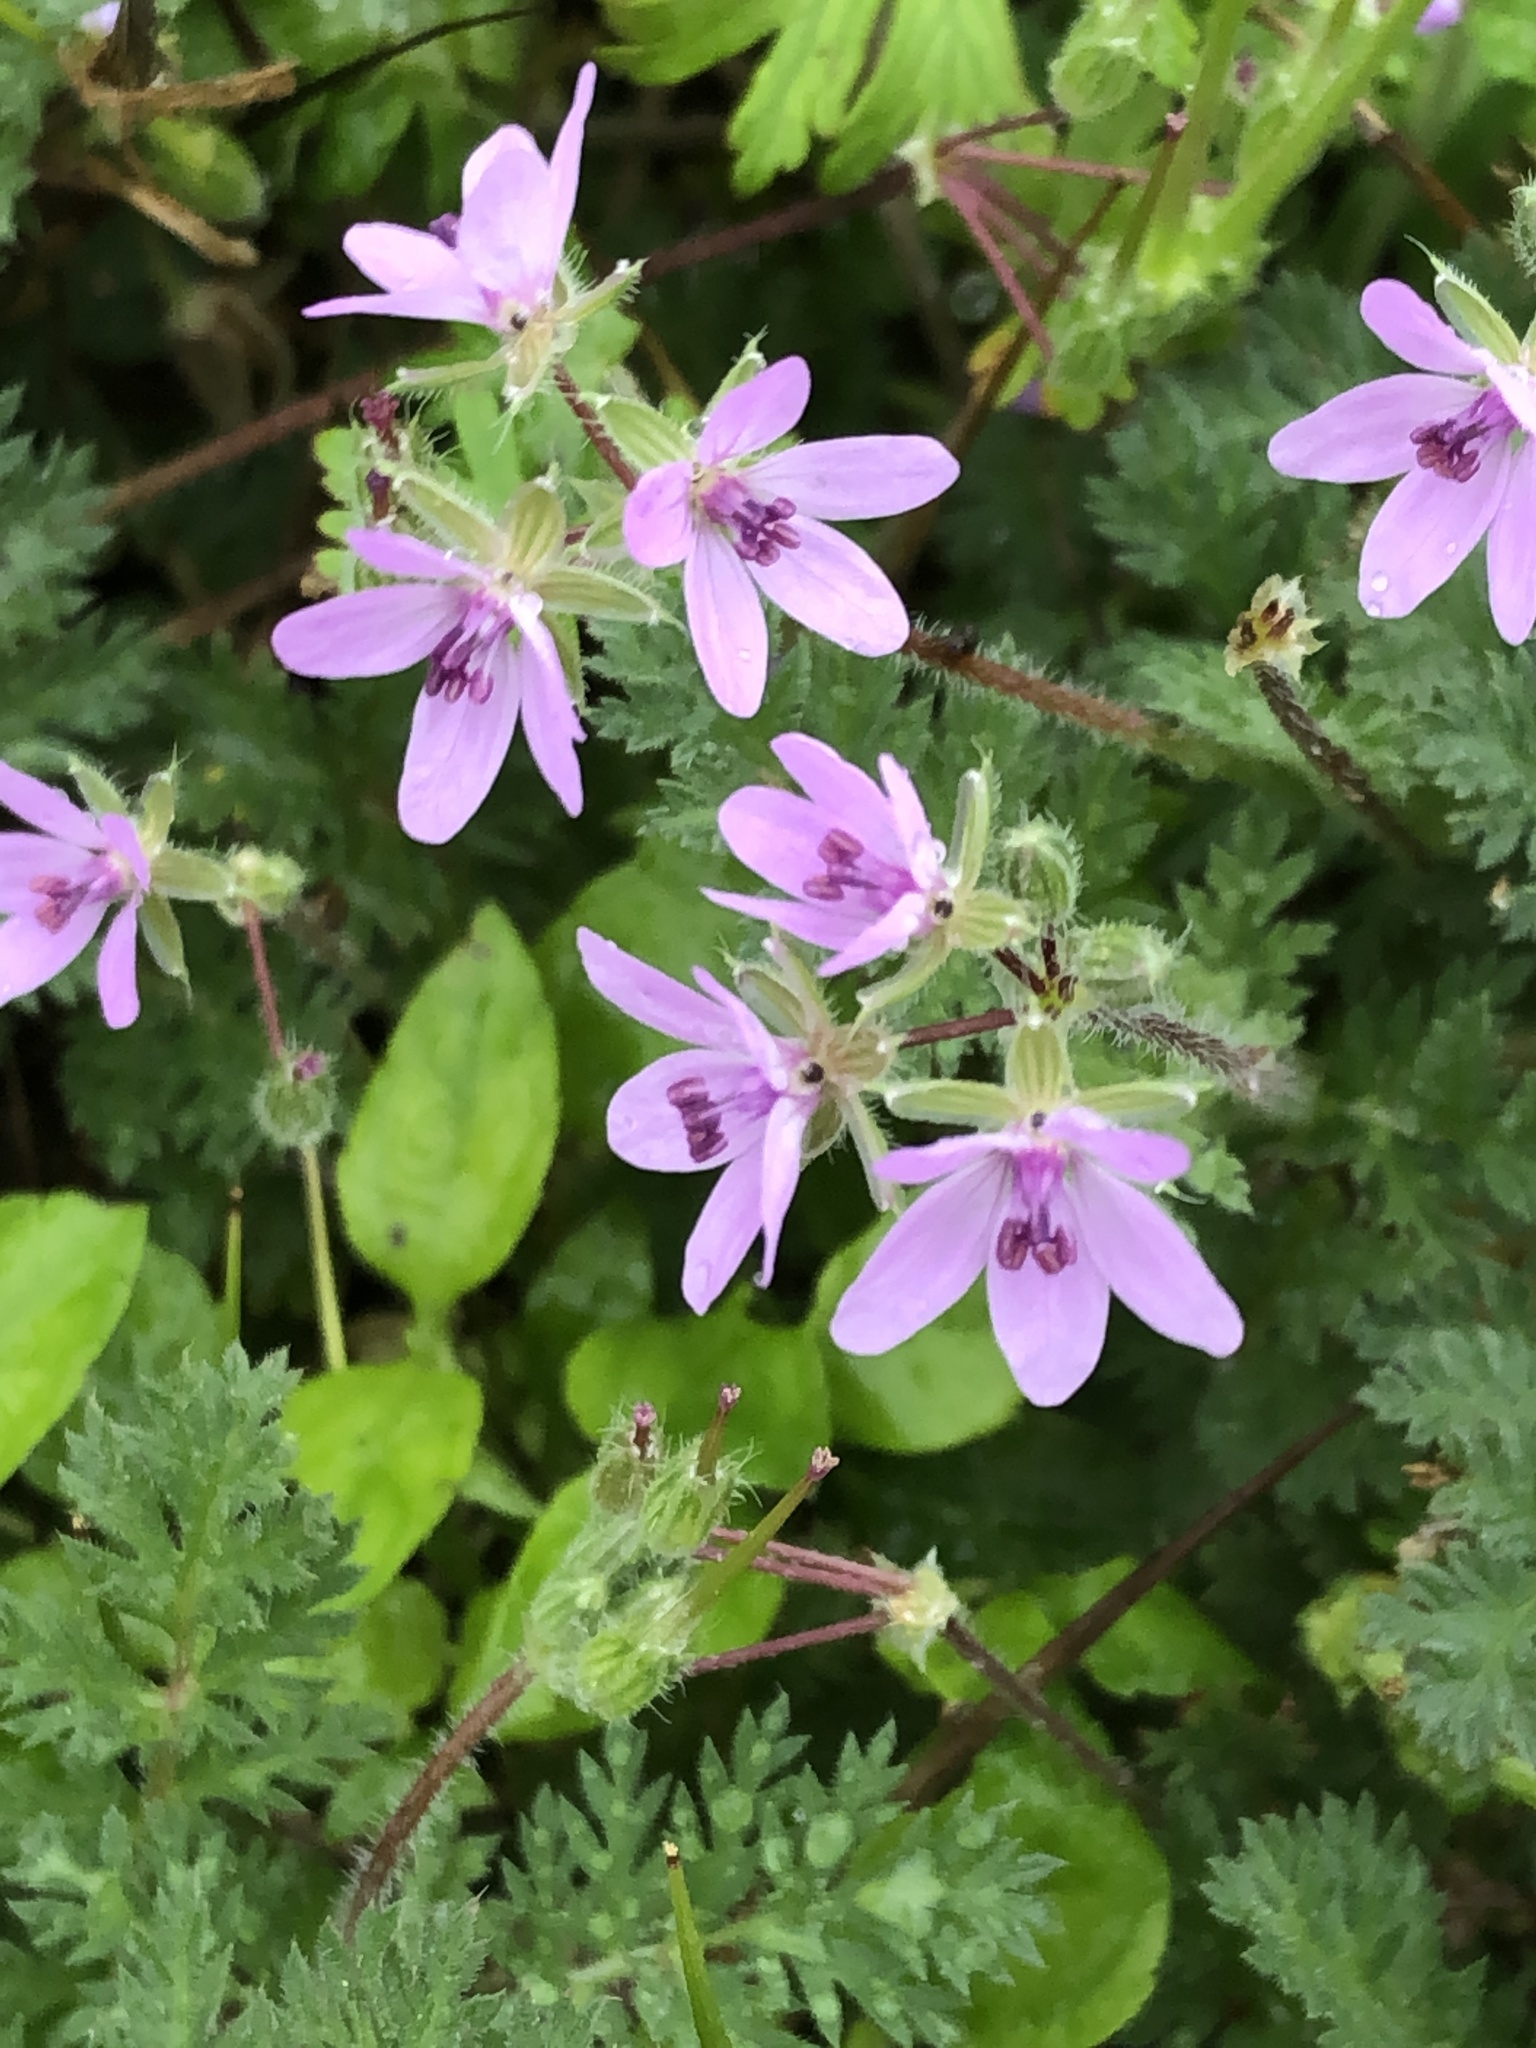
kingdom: Plantae
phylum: Tracheophyta
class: Magnoliopsida
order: Geraniales
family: Geraniaceae
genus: Erodium
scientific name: Erodium cicutarium
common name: Common stork's-bill
